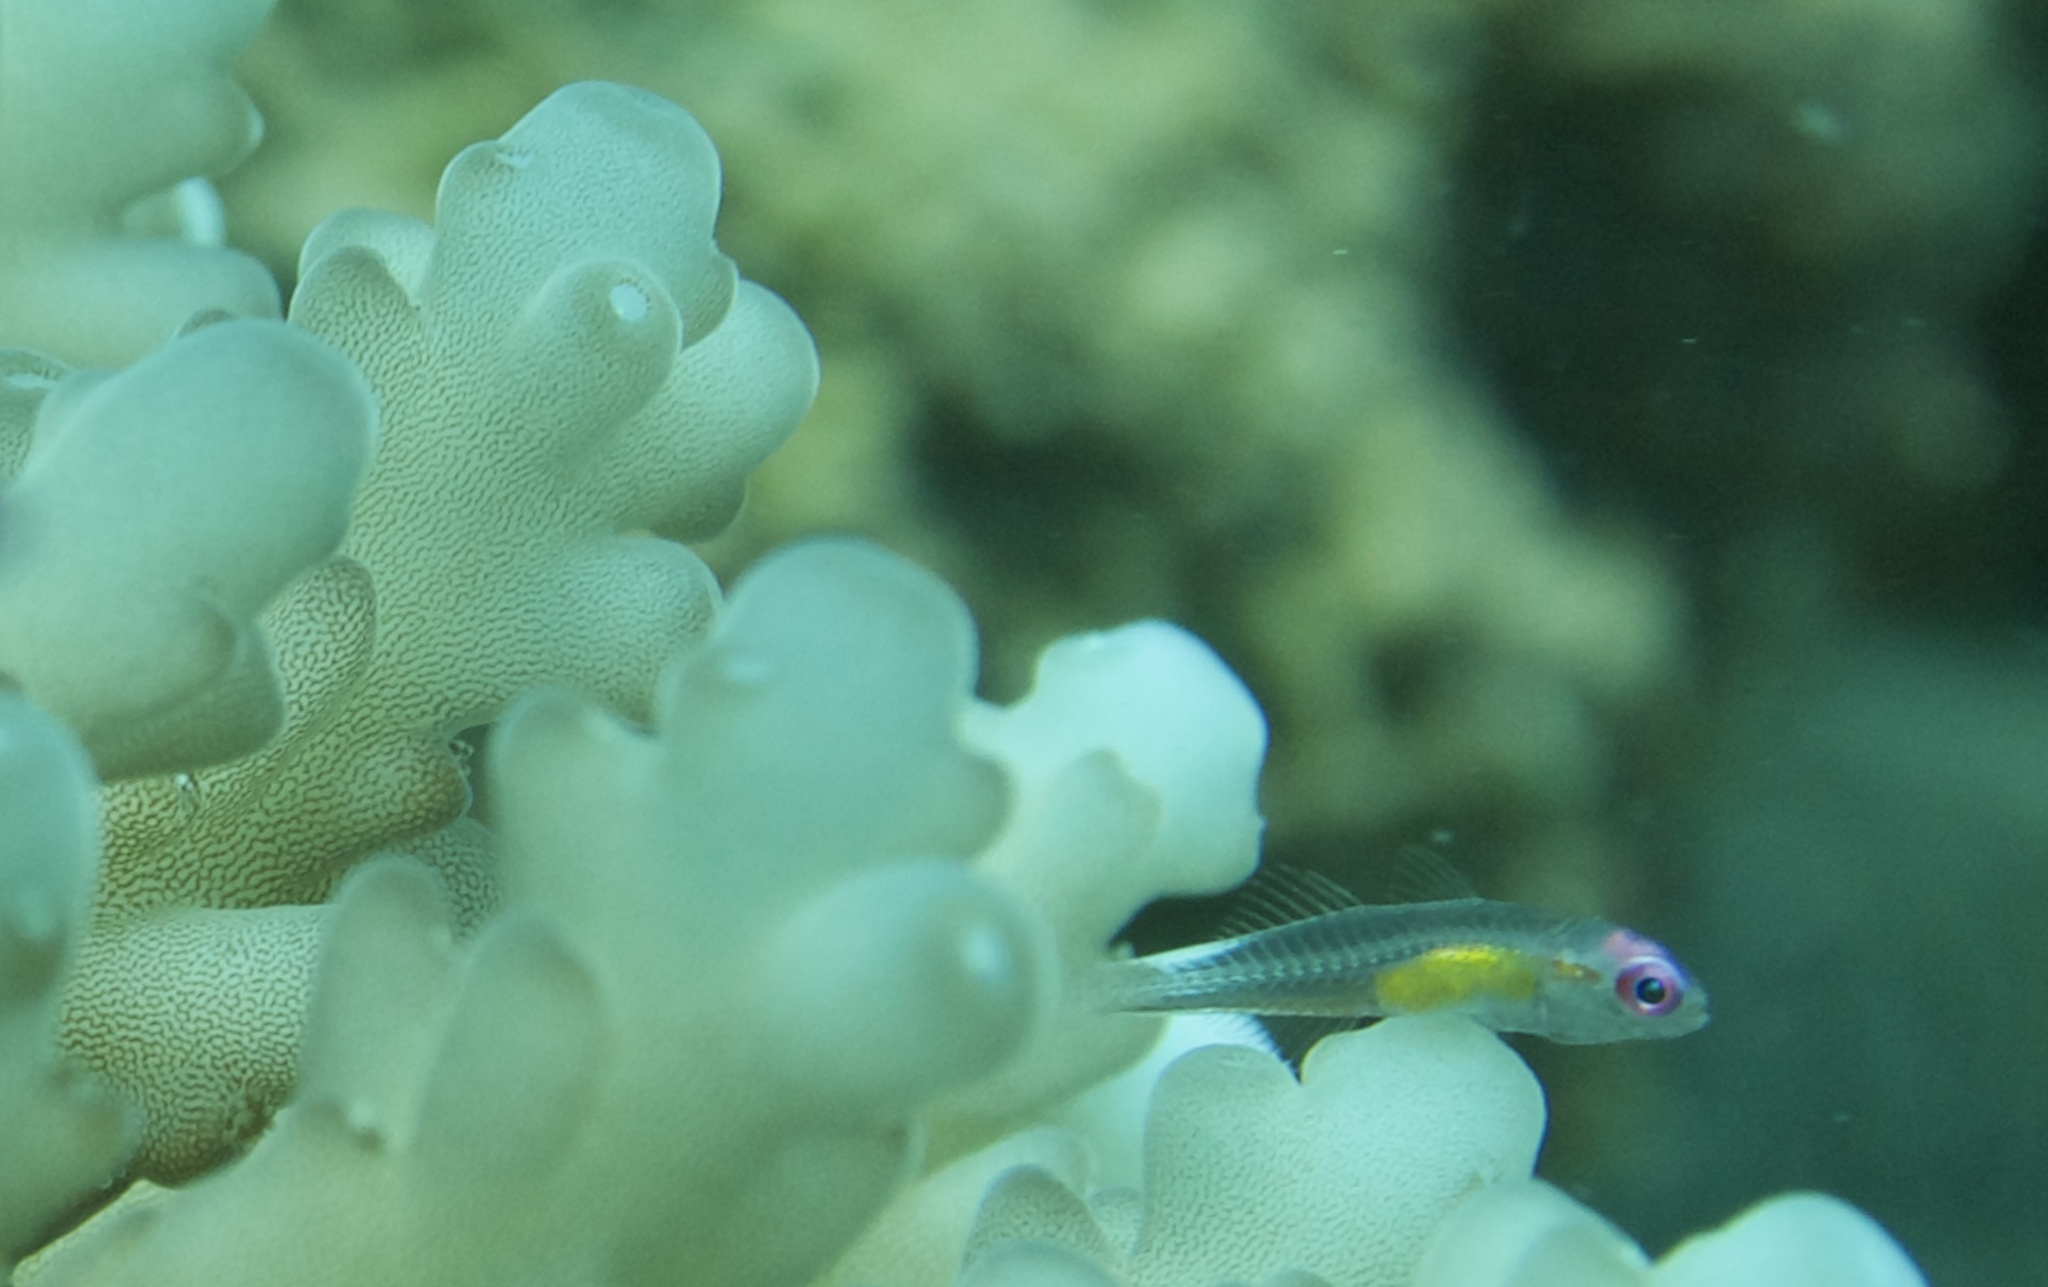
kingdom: Animalia
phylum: Chordata
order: Perciformes
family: Gobiidae
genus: Bryaninops
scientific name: Bryaninops natans
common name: Redeye goby
